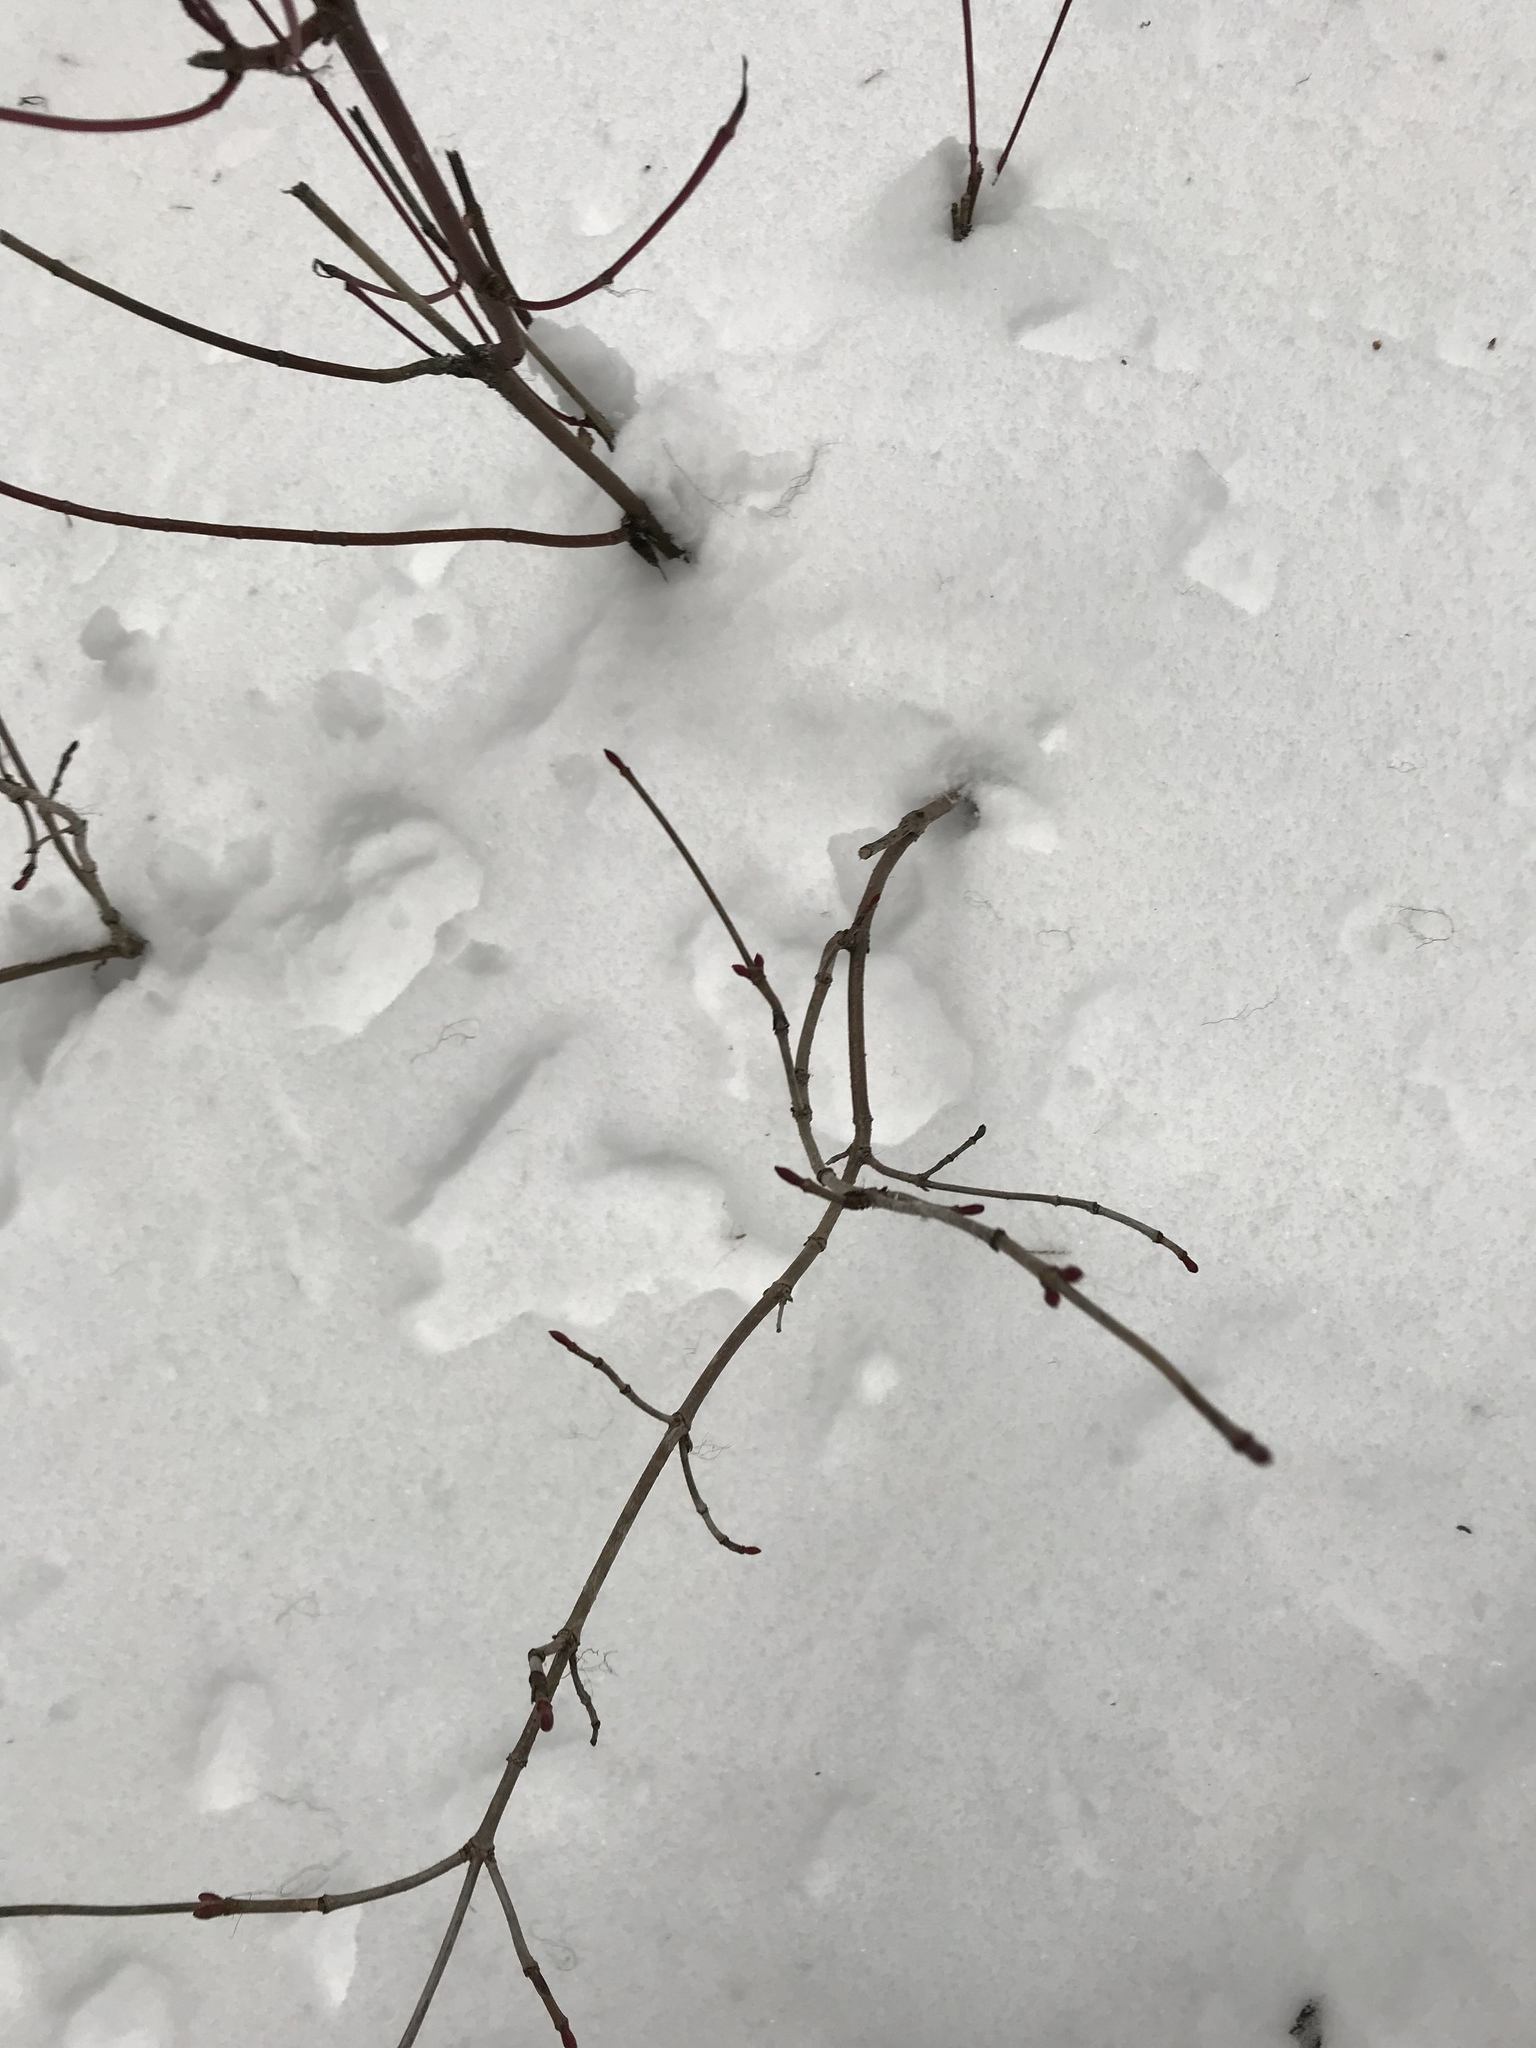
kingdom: Plantae
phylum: Tracheophyta
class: Magnoliopsida
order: Dipsacales
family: Viburnaceae
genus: Viburnum
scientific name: Viburnum edule
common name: Mooseberry
